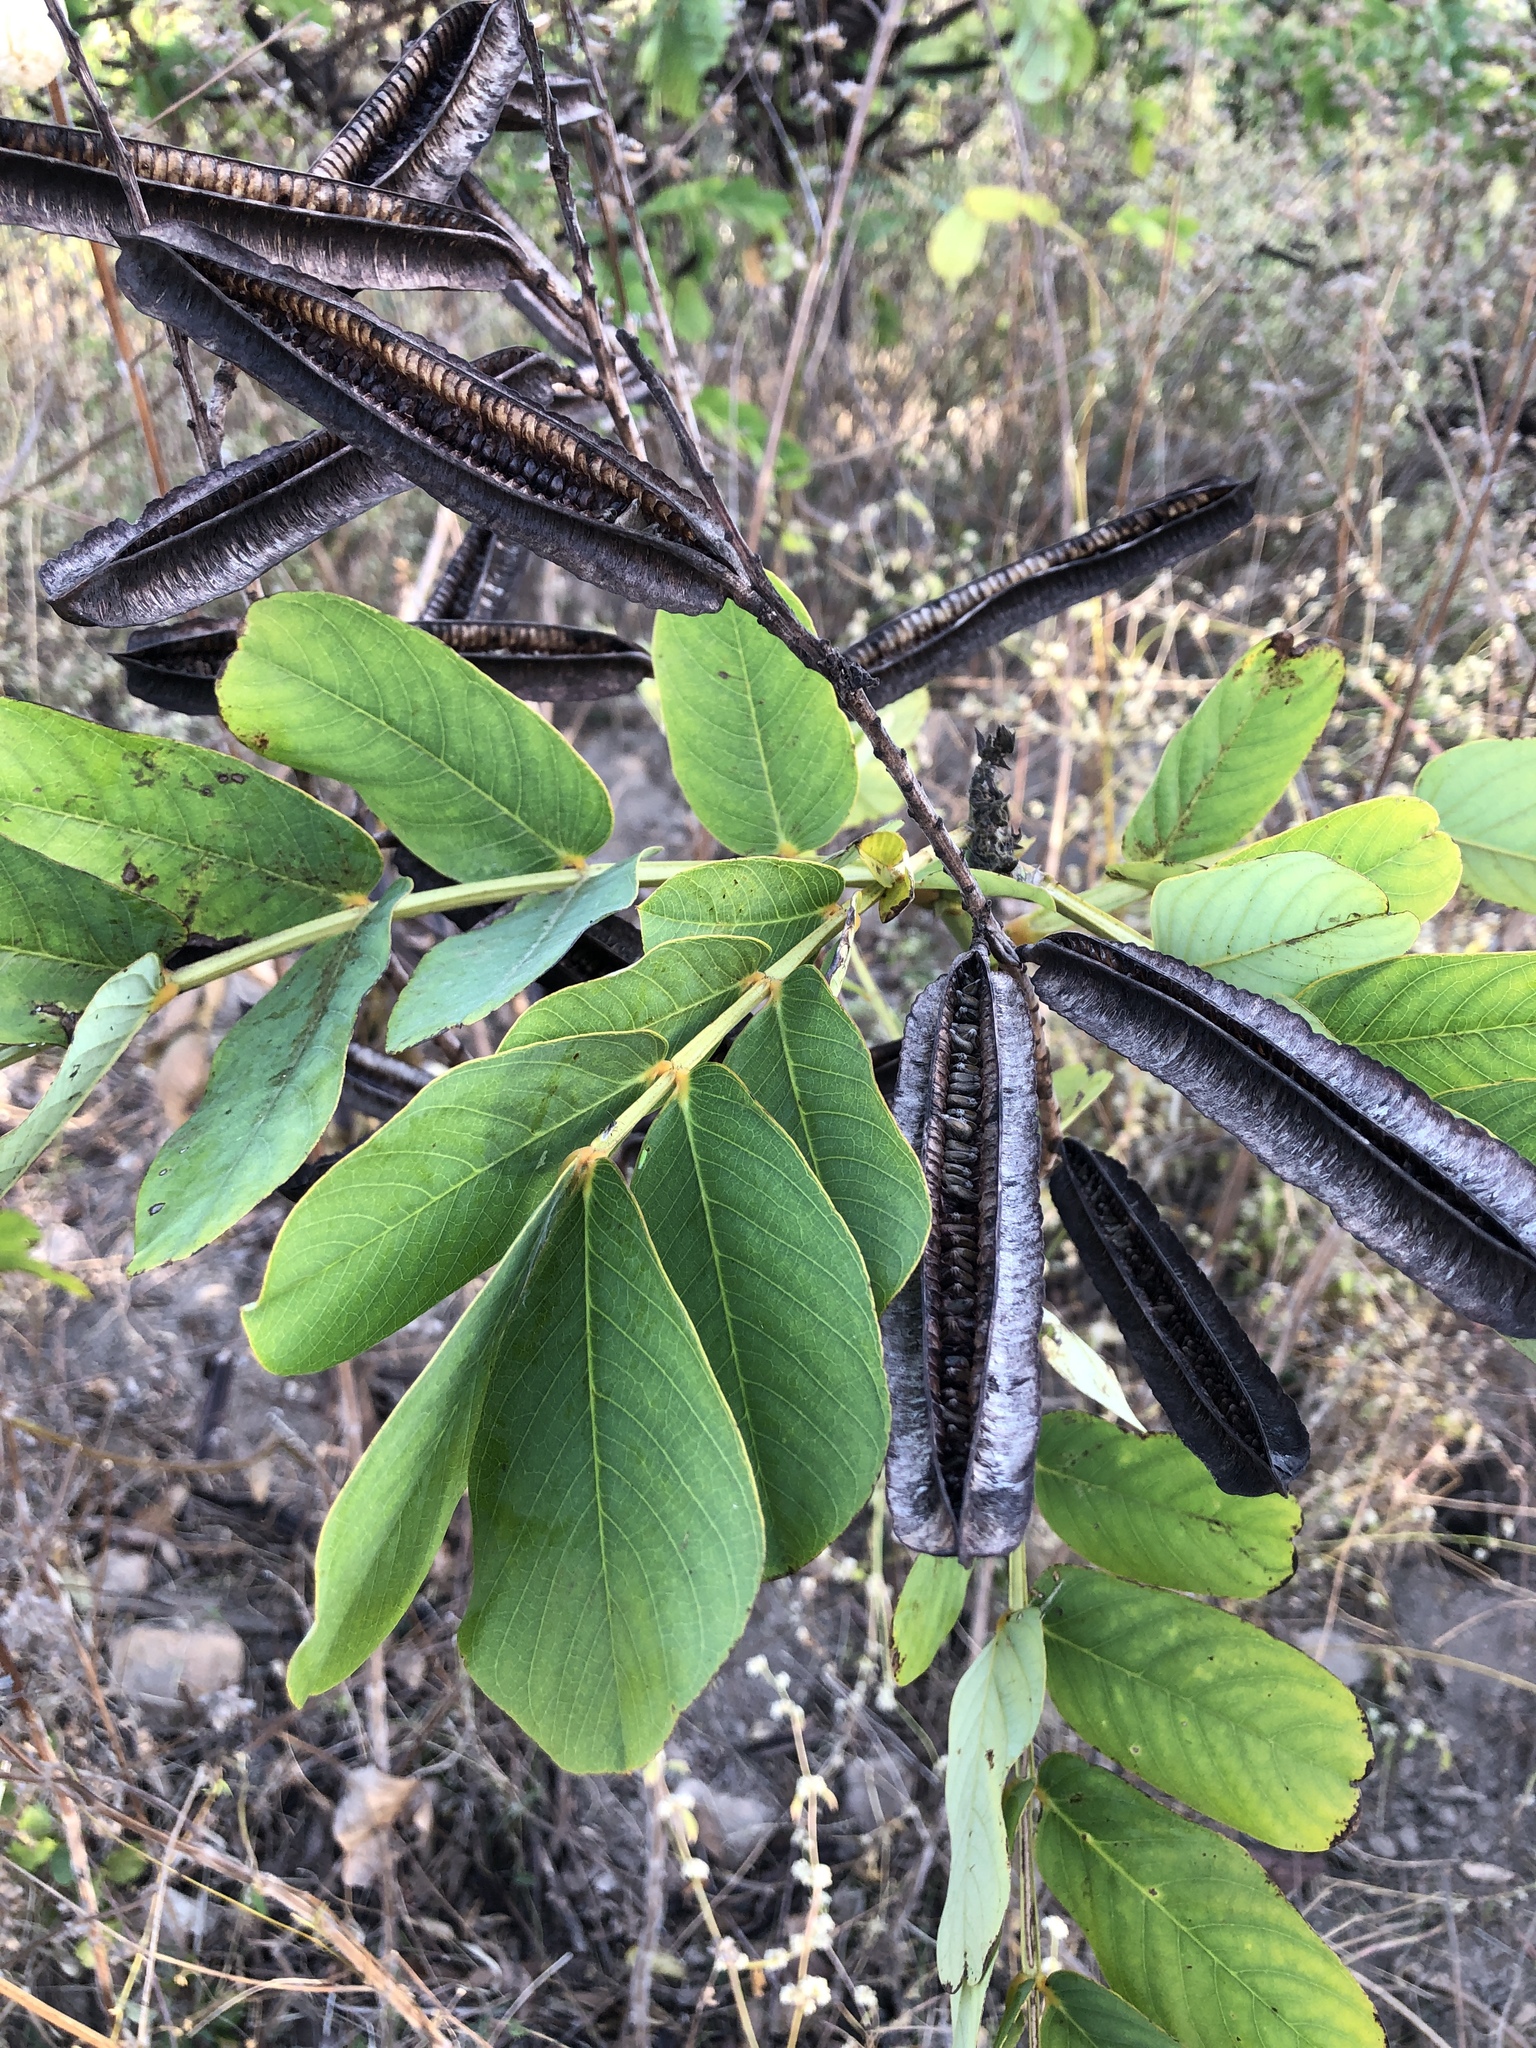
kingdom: Plantae
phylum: Tracheophyta
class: Magnoliopsida
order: Fabales
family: Fabaceae
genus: Senna
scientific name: Senna alata
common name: Emperor's candlesticks
